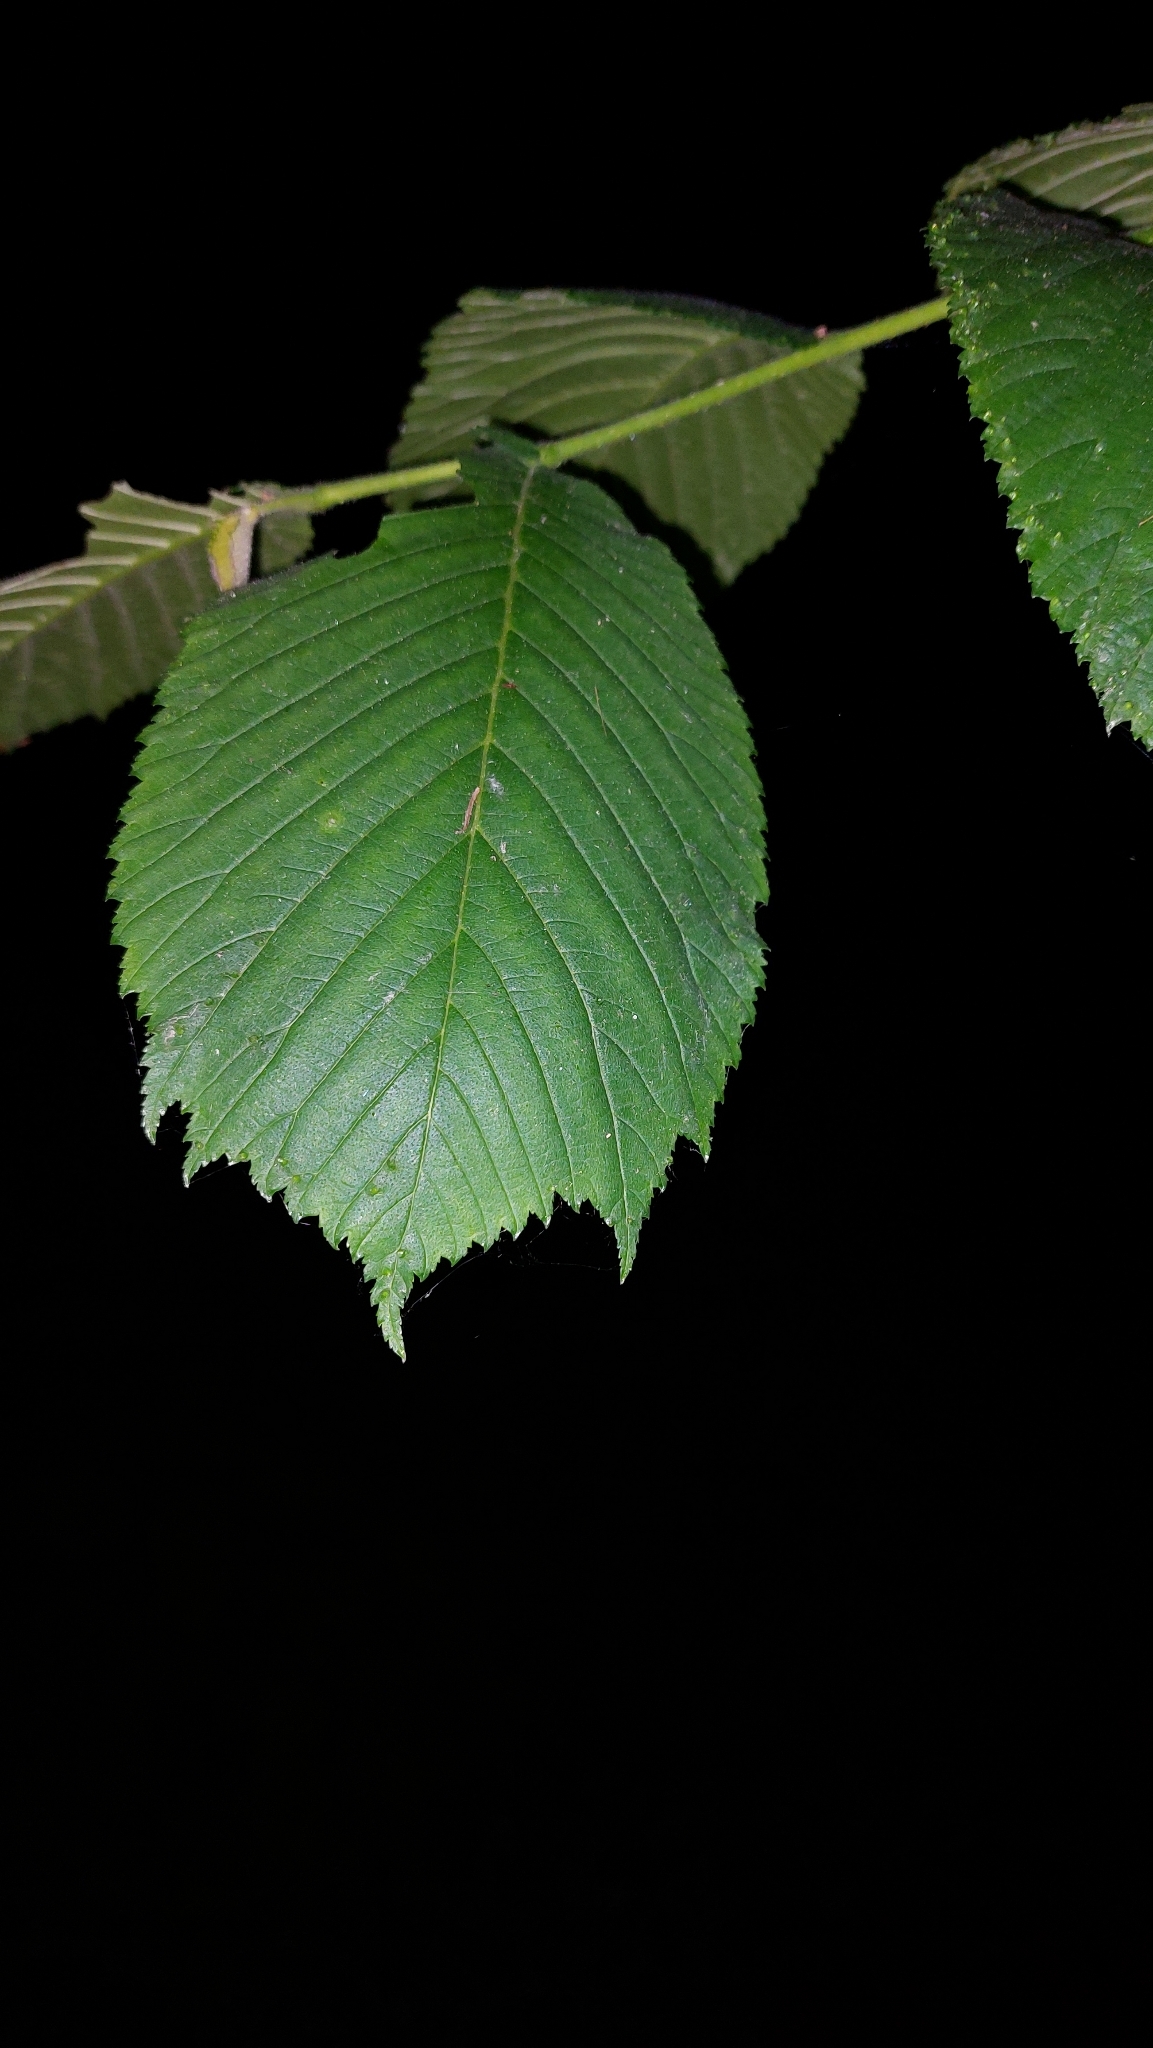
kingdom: Plantae
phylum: Tracheophyta
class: Magnoliopsida
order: Rosales
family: Ulmaceae
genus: Ulmus
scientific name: Ulmus glabra
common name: Wych elm
